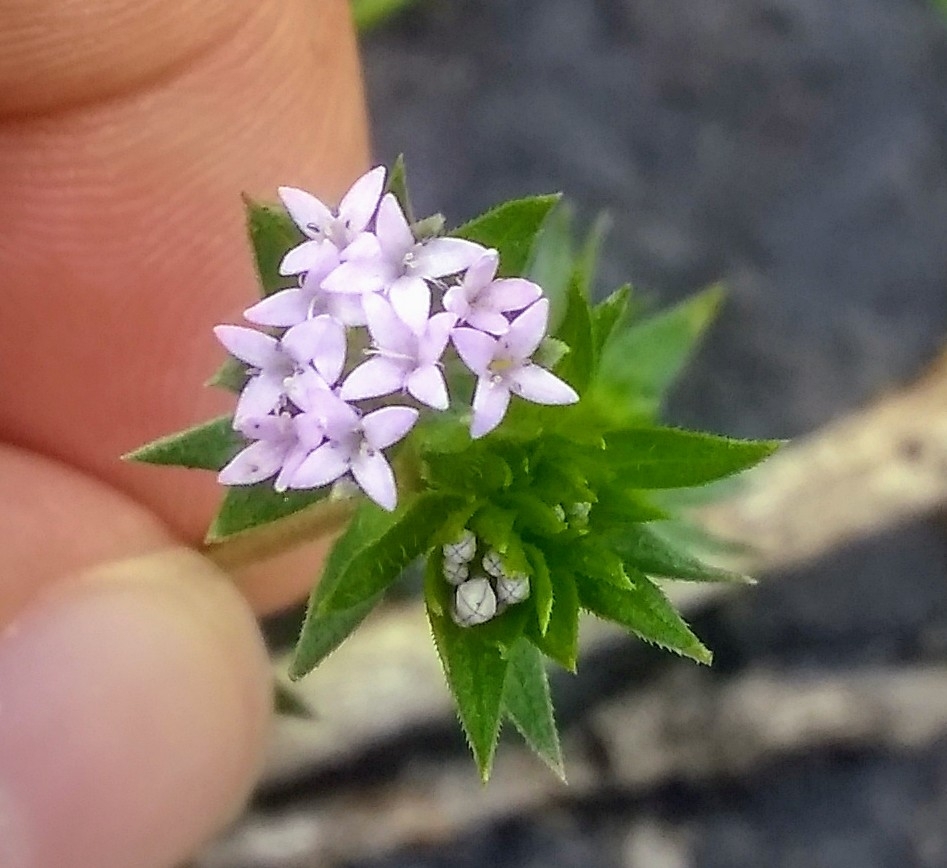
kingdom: Plantae
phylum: Tracheophyta
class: Magnoliopsida
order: Gentianales
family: Rubiaceae
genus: Sherardia
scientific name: Sherardia arvensis
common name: Field madder
